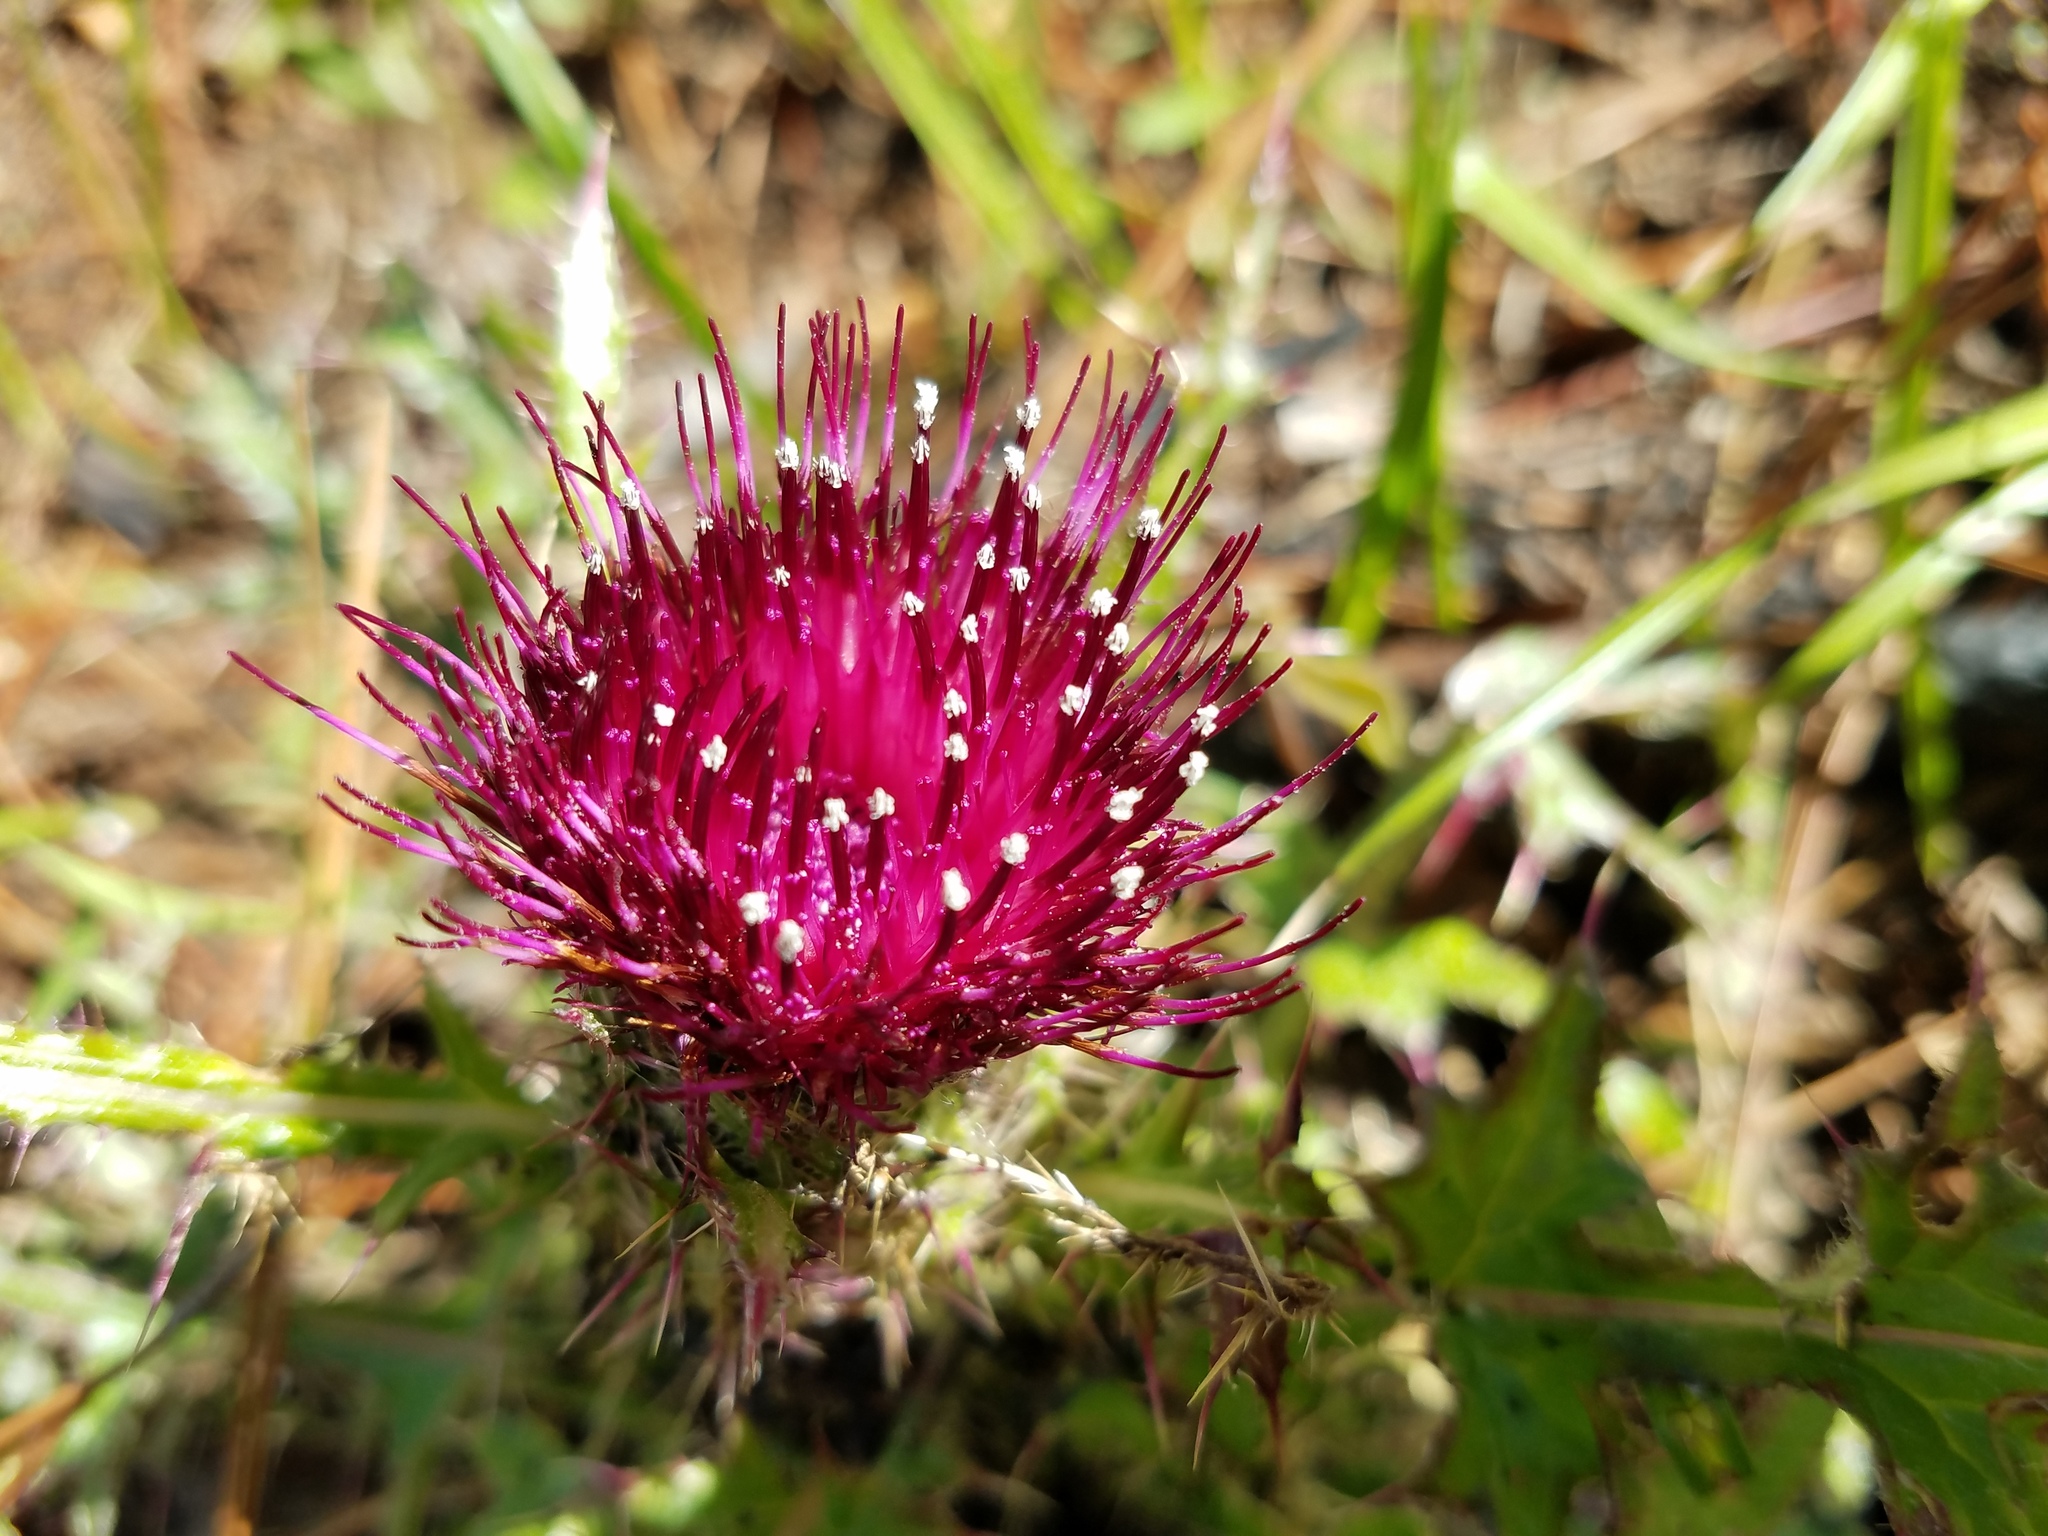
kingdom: Plantae
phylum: Tracheophyta
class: Magnoliopsida
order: Asterales
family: Asteraceae
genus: Cirsium
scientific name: Cirsium horridulum
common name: Bristly thistle
